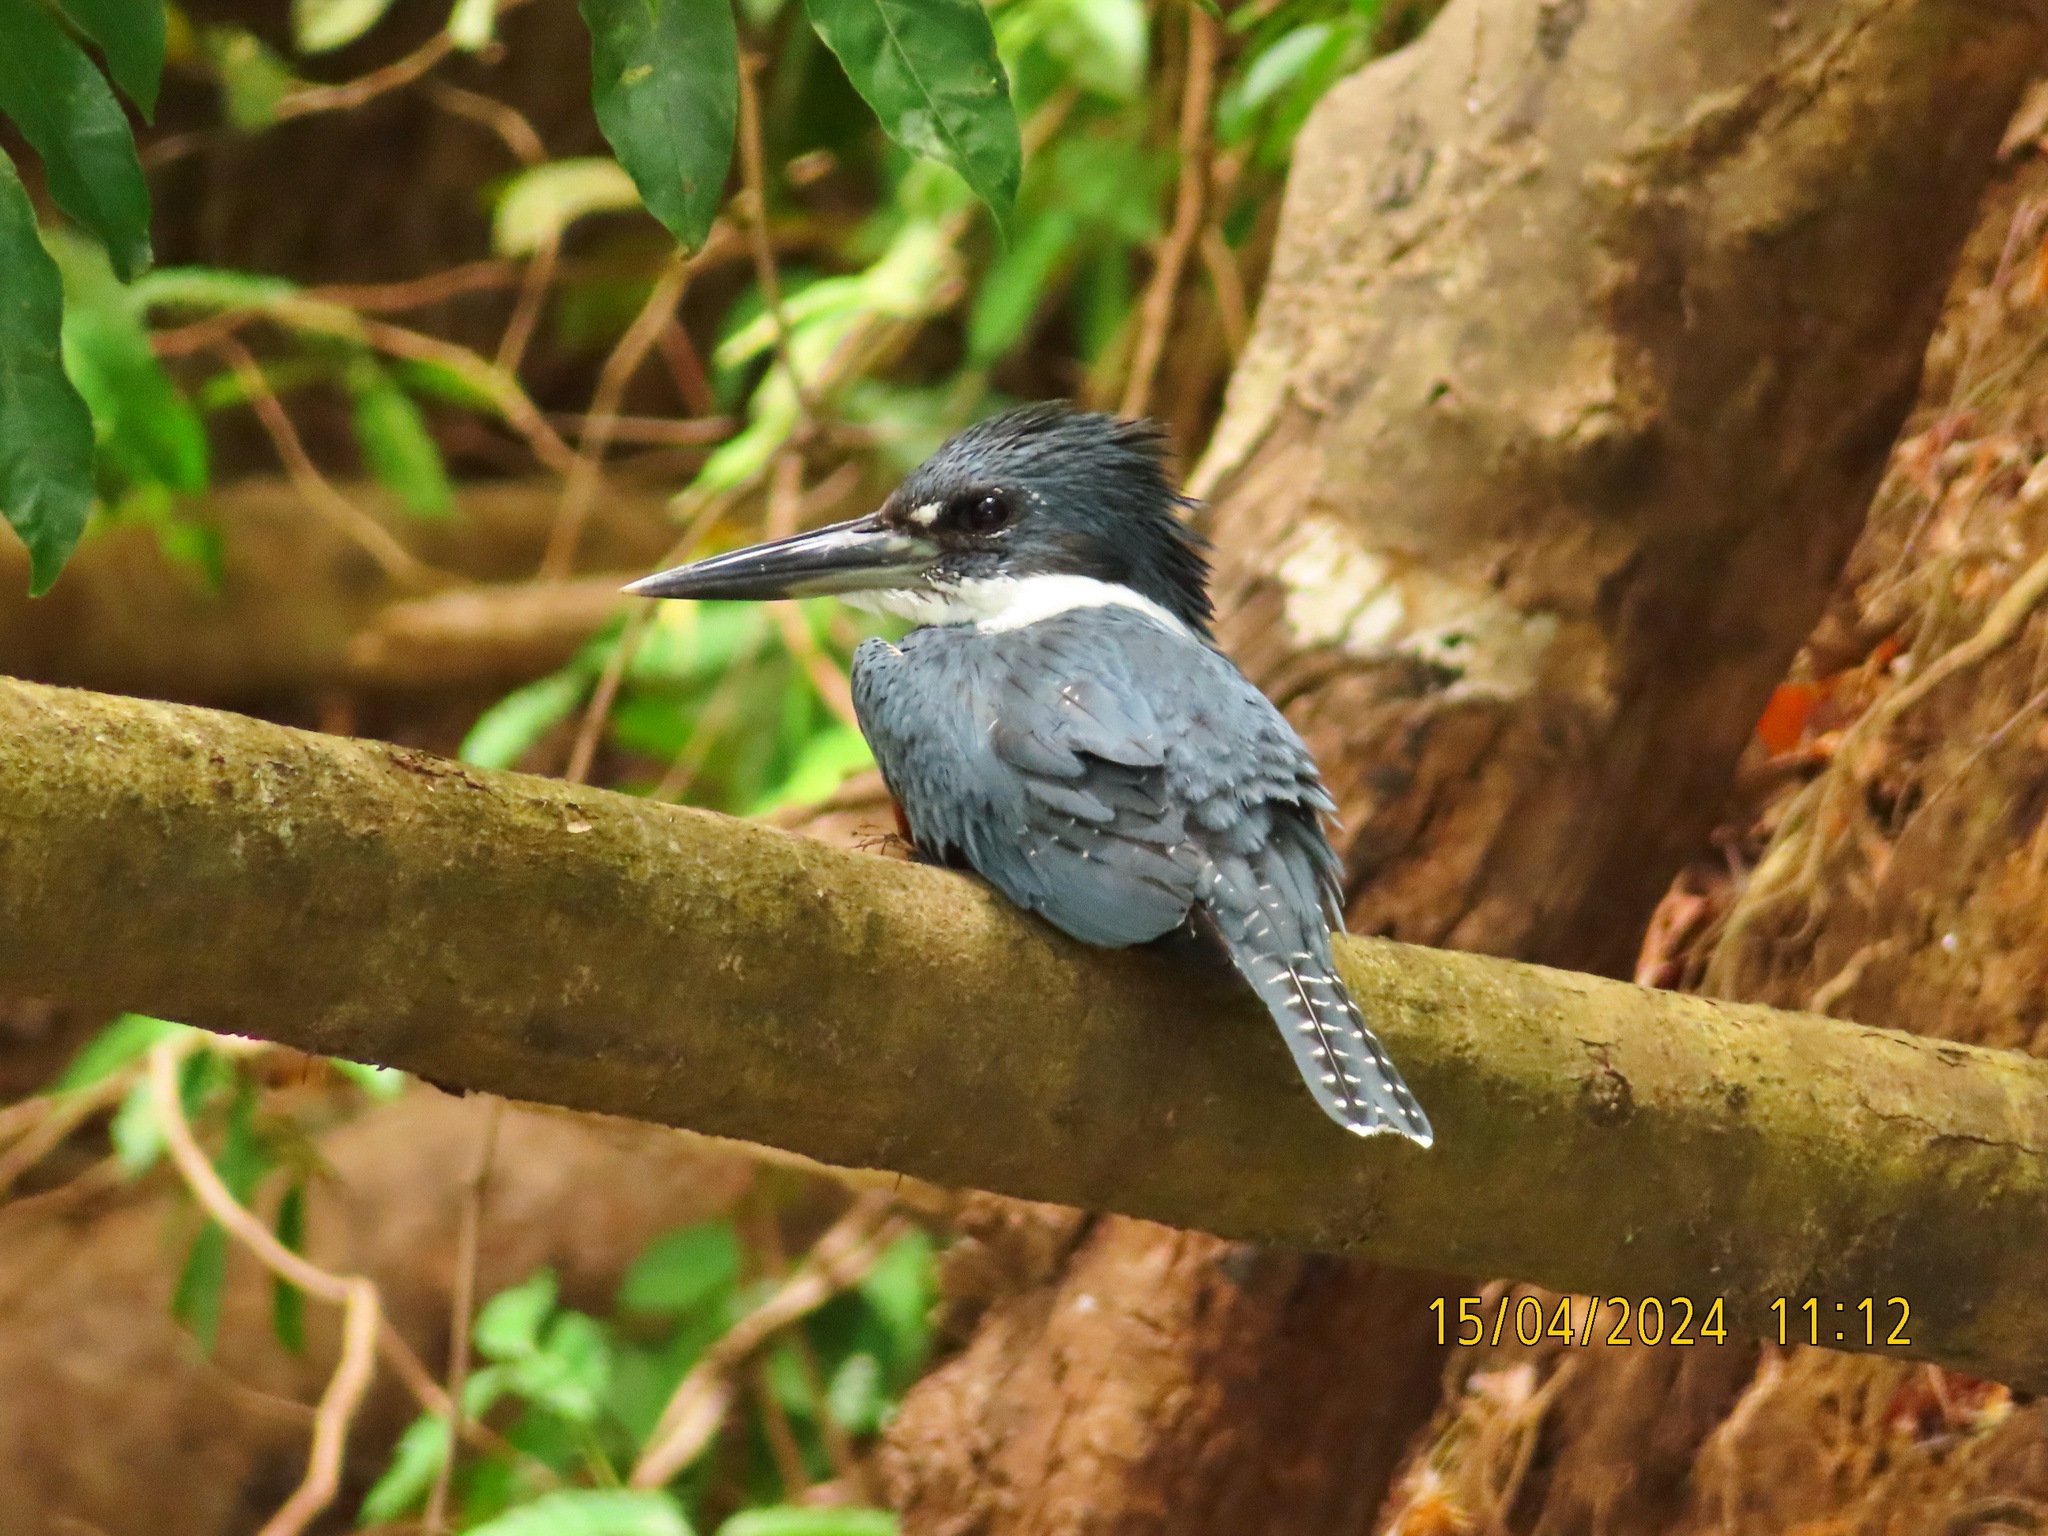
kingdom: Animalia
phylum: Chordata
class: Aves
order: Coraciiformes
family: Alcedinidae
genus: Megaceryle
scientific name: Megaceryle torquata
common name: Ringed kingfisher
